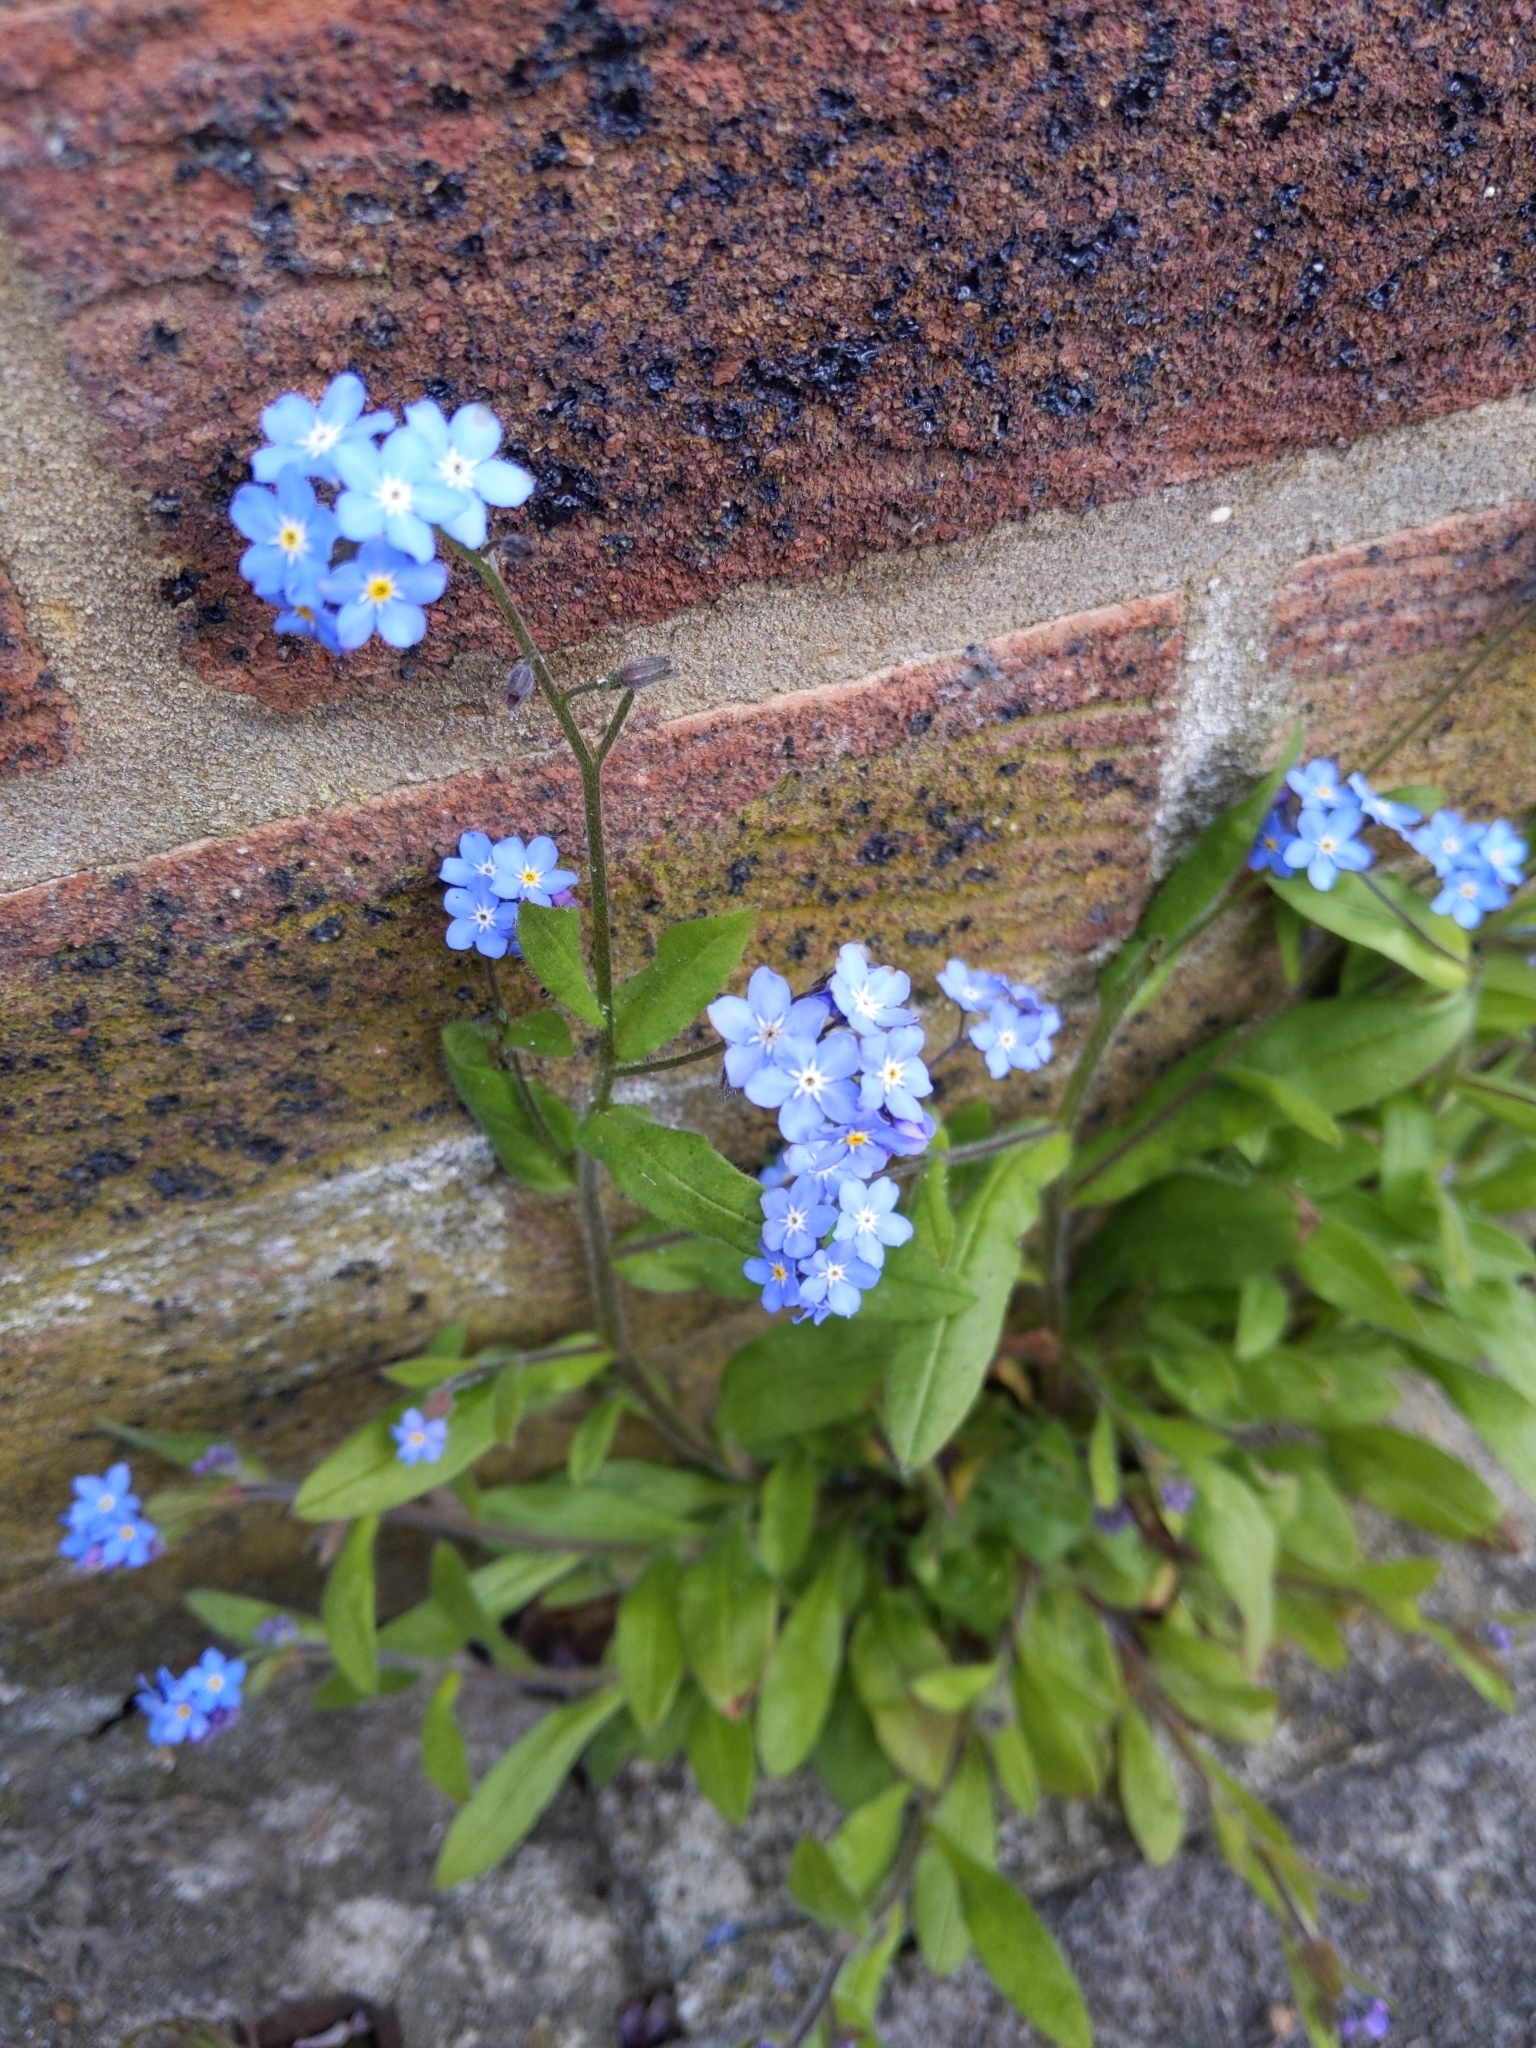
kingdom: Plantae
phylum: Tracheophyta
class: Magnoliopsida
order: Boraginales
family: Boraginaceae
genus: Myosotis
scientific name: Myosotis arvensis
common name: Field forget-me-not
